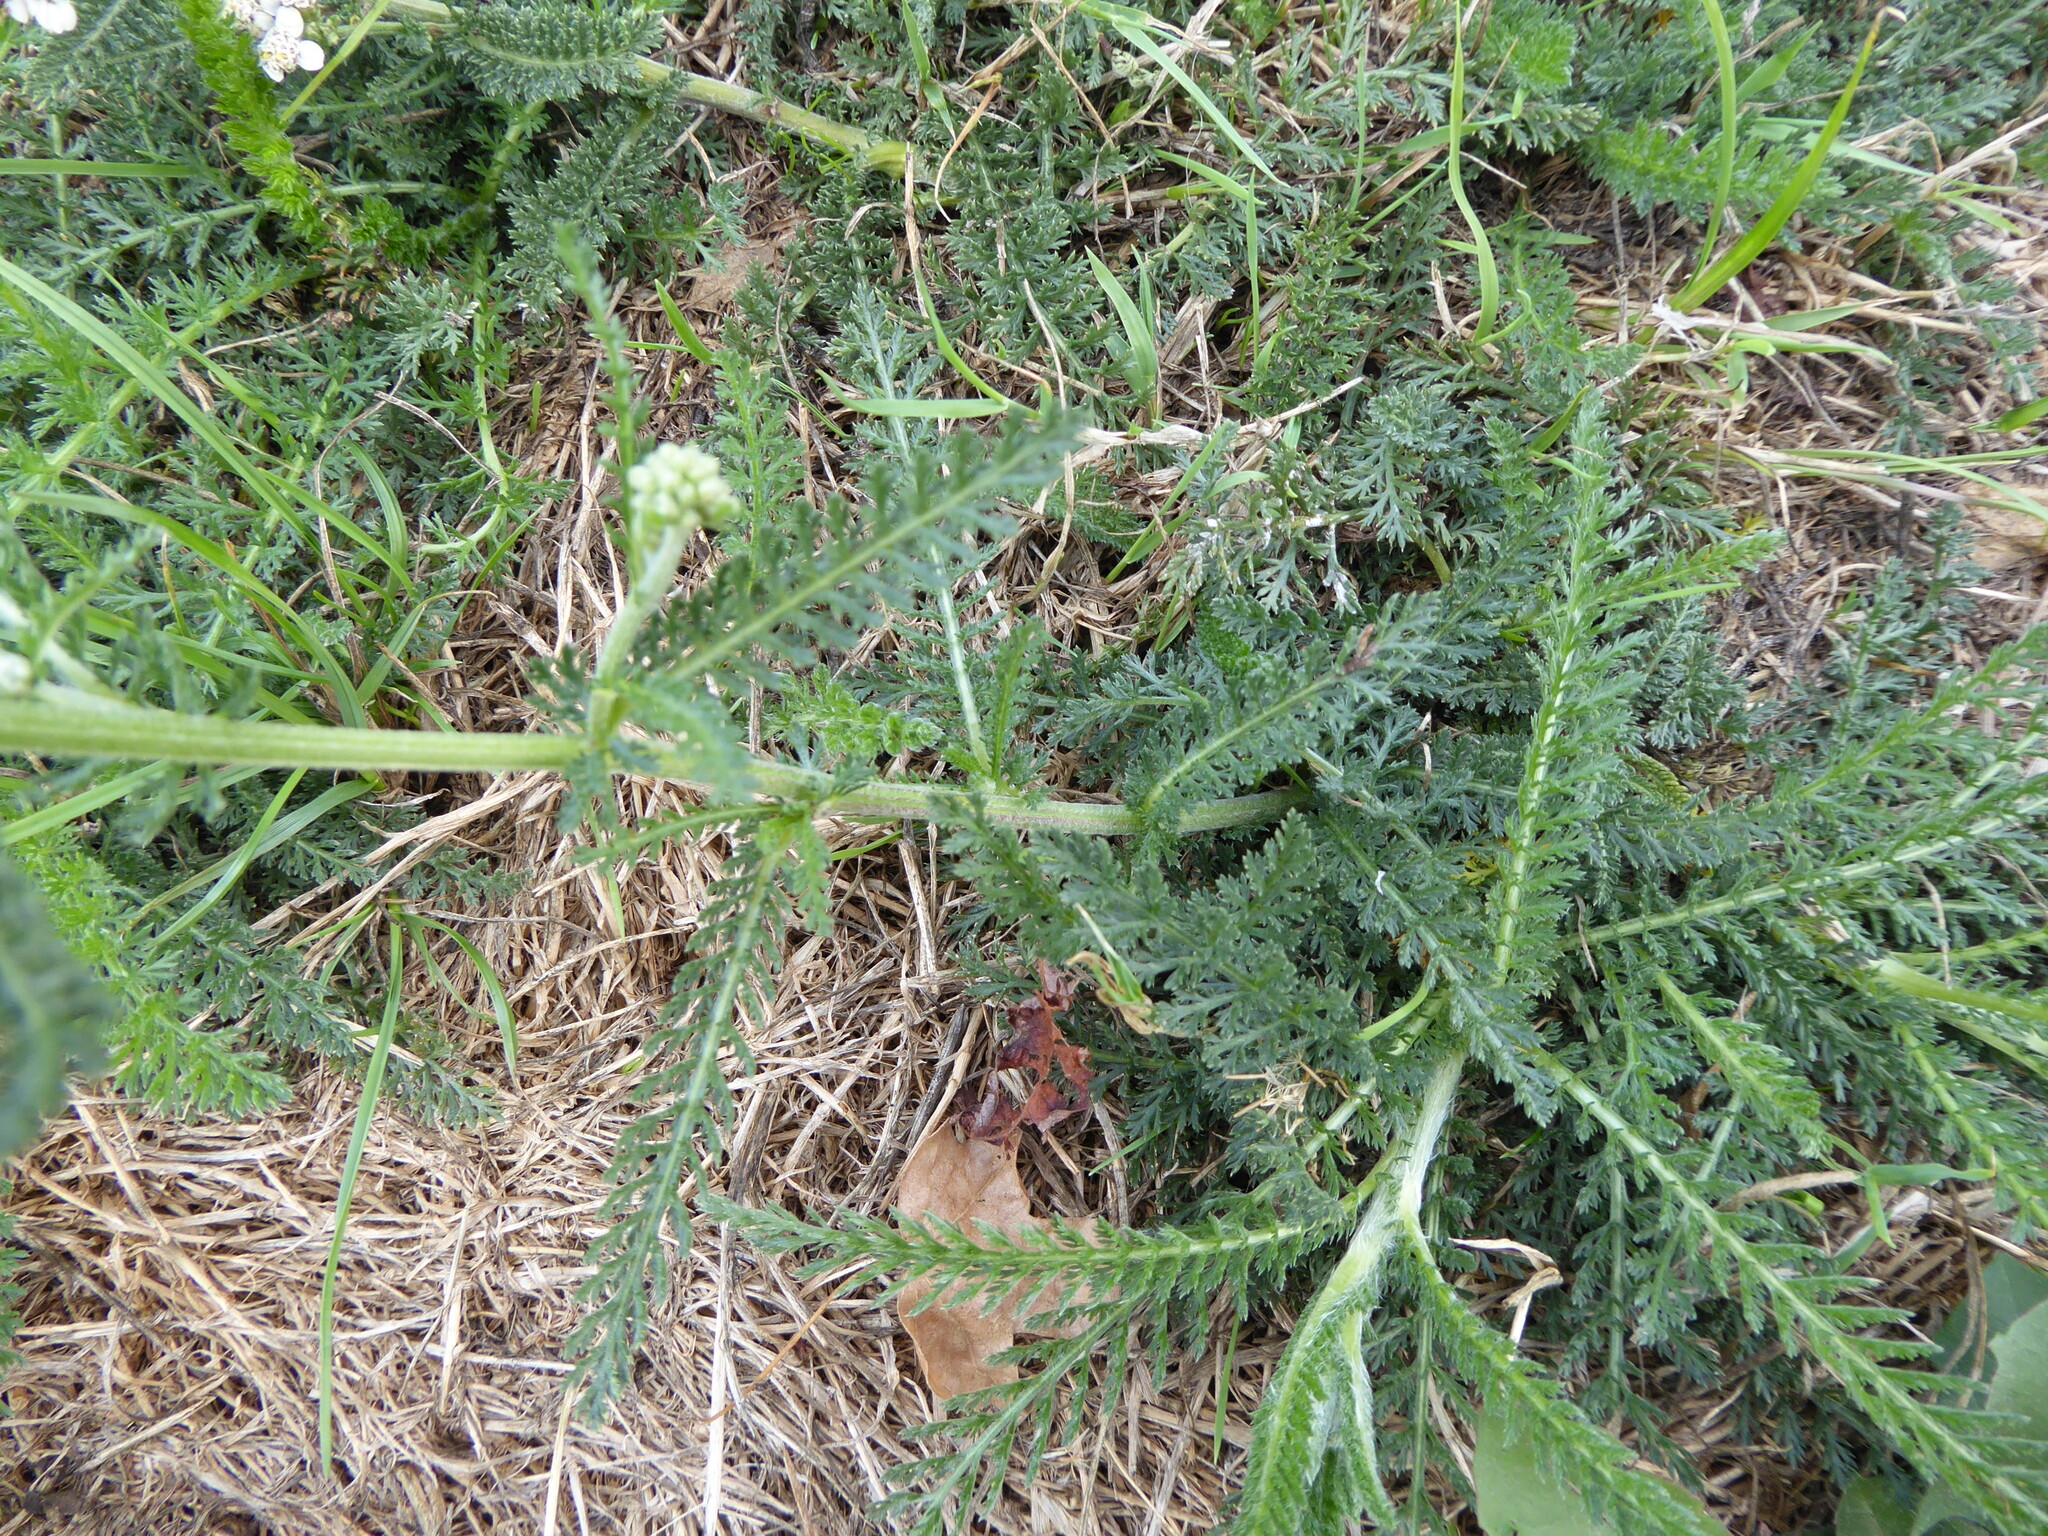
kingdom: Plantae
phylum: Tracheophyta
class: Magnoliopsida
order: Asterales
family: Asteraceae
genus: Achillea
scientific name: Achillea millefolium
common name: Yarrow
